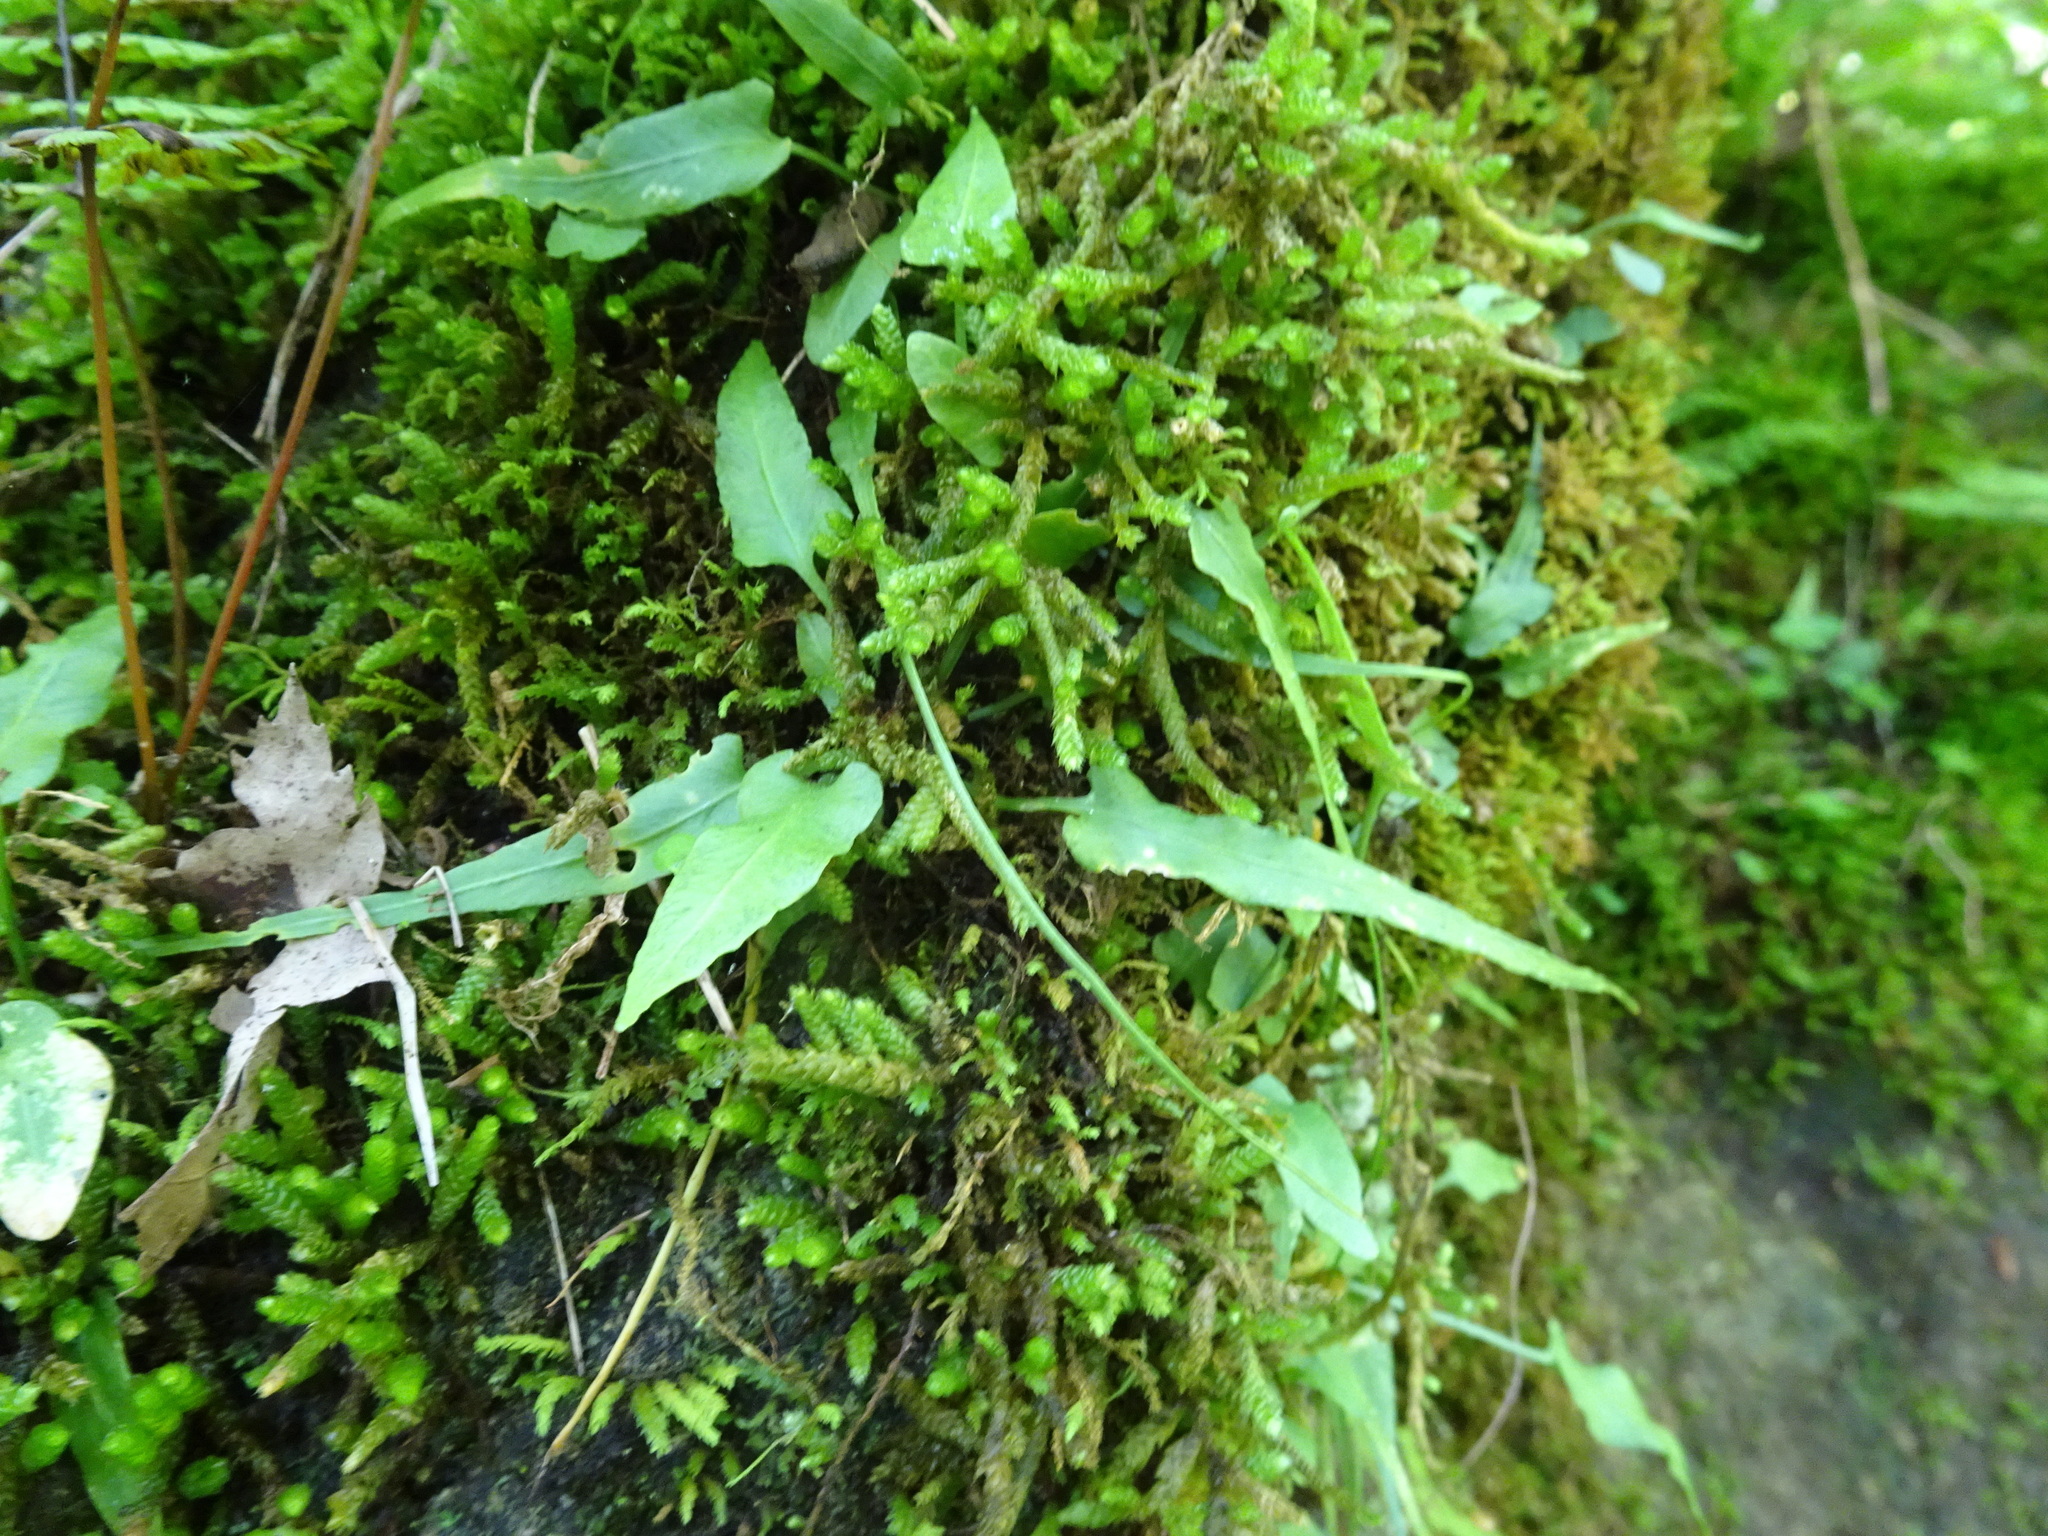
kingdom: Plantae
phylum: Tracheophyta
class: Polypodiopsida
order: Polypodiales
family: Aspleniaceae
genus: Asplenium
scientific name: Asplenium rhizophyllum
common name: Walking fern
